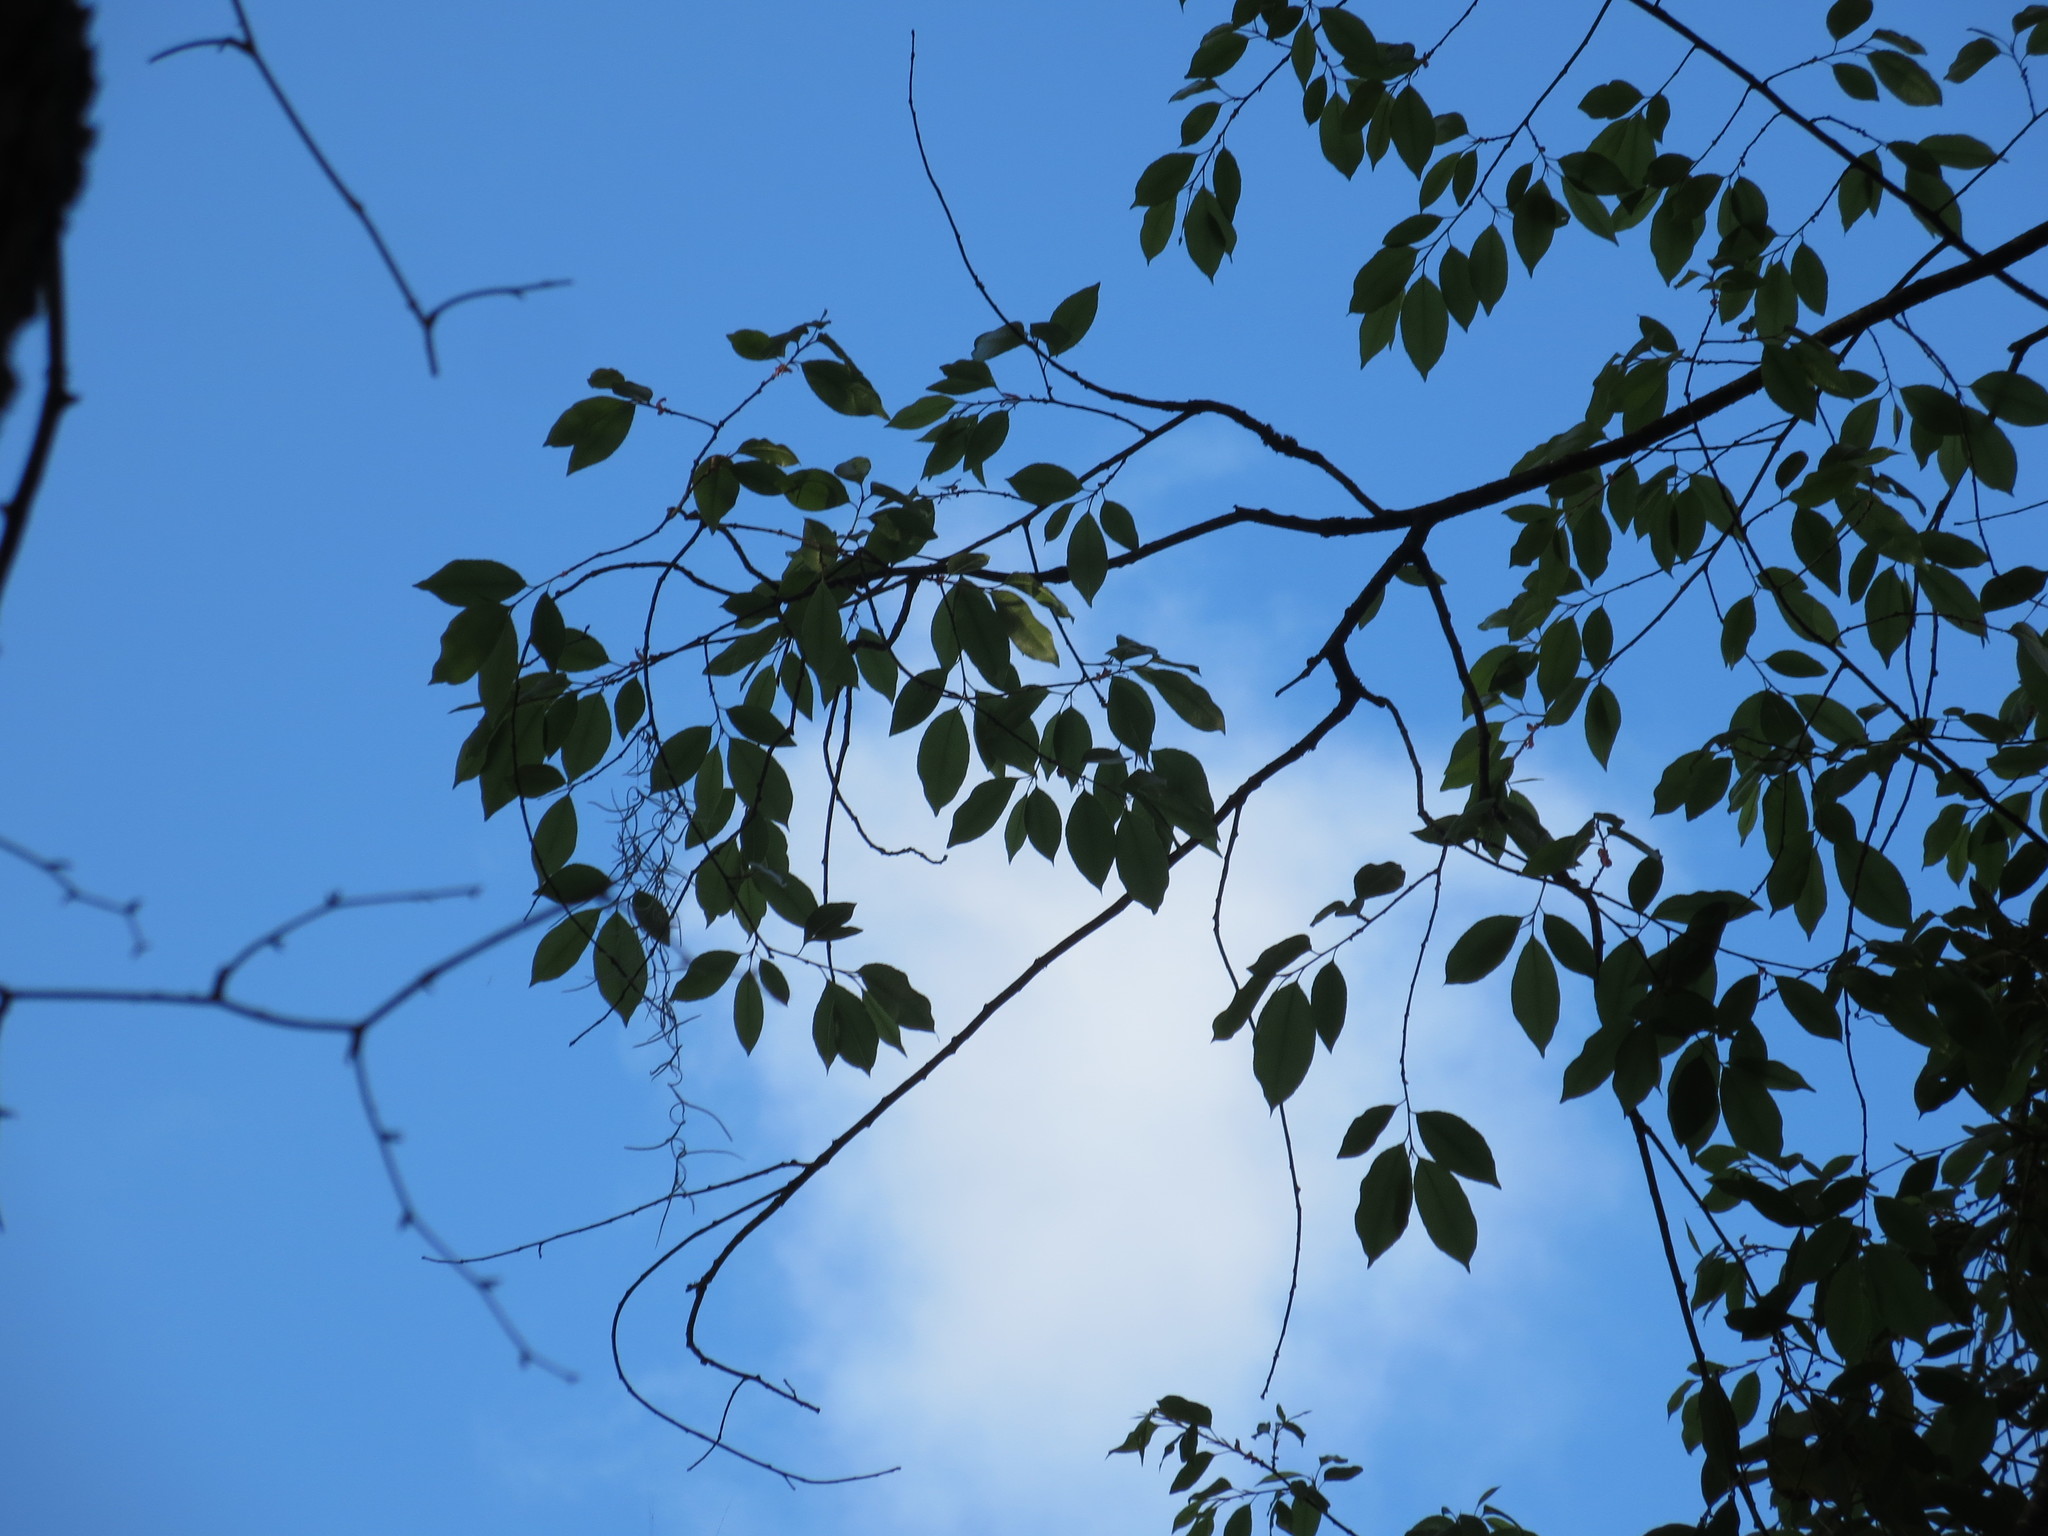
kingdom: Plantae
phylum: Tracheophyta
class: Magnoliopsida
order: Rosales
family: Rosaceae
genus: Prunus
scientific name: Prunus serotina
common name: Black cherry
